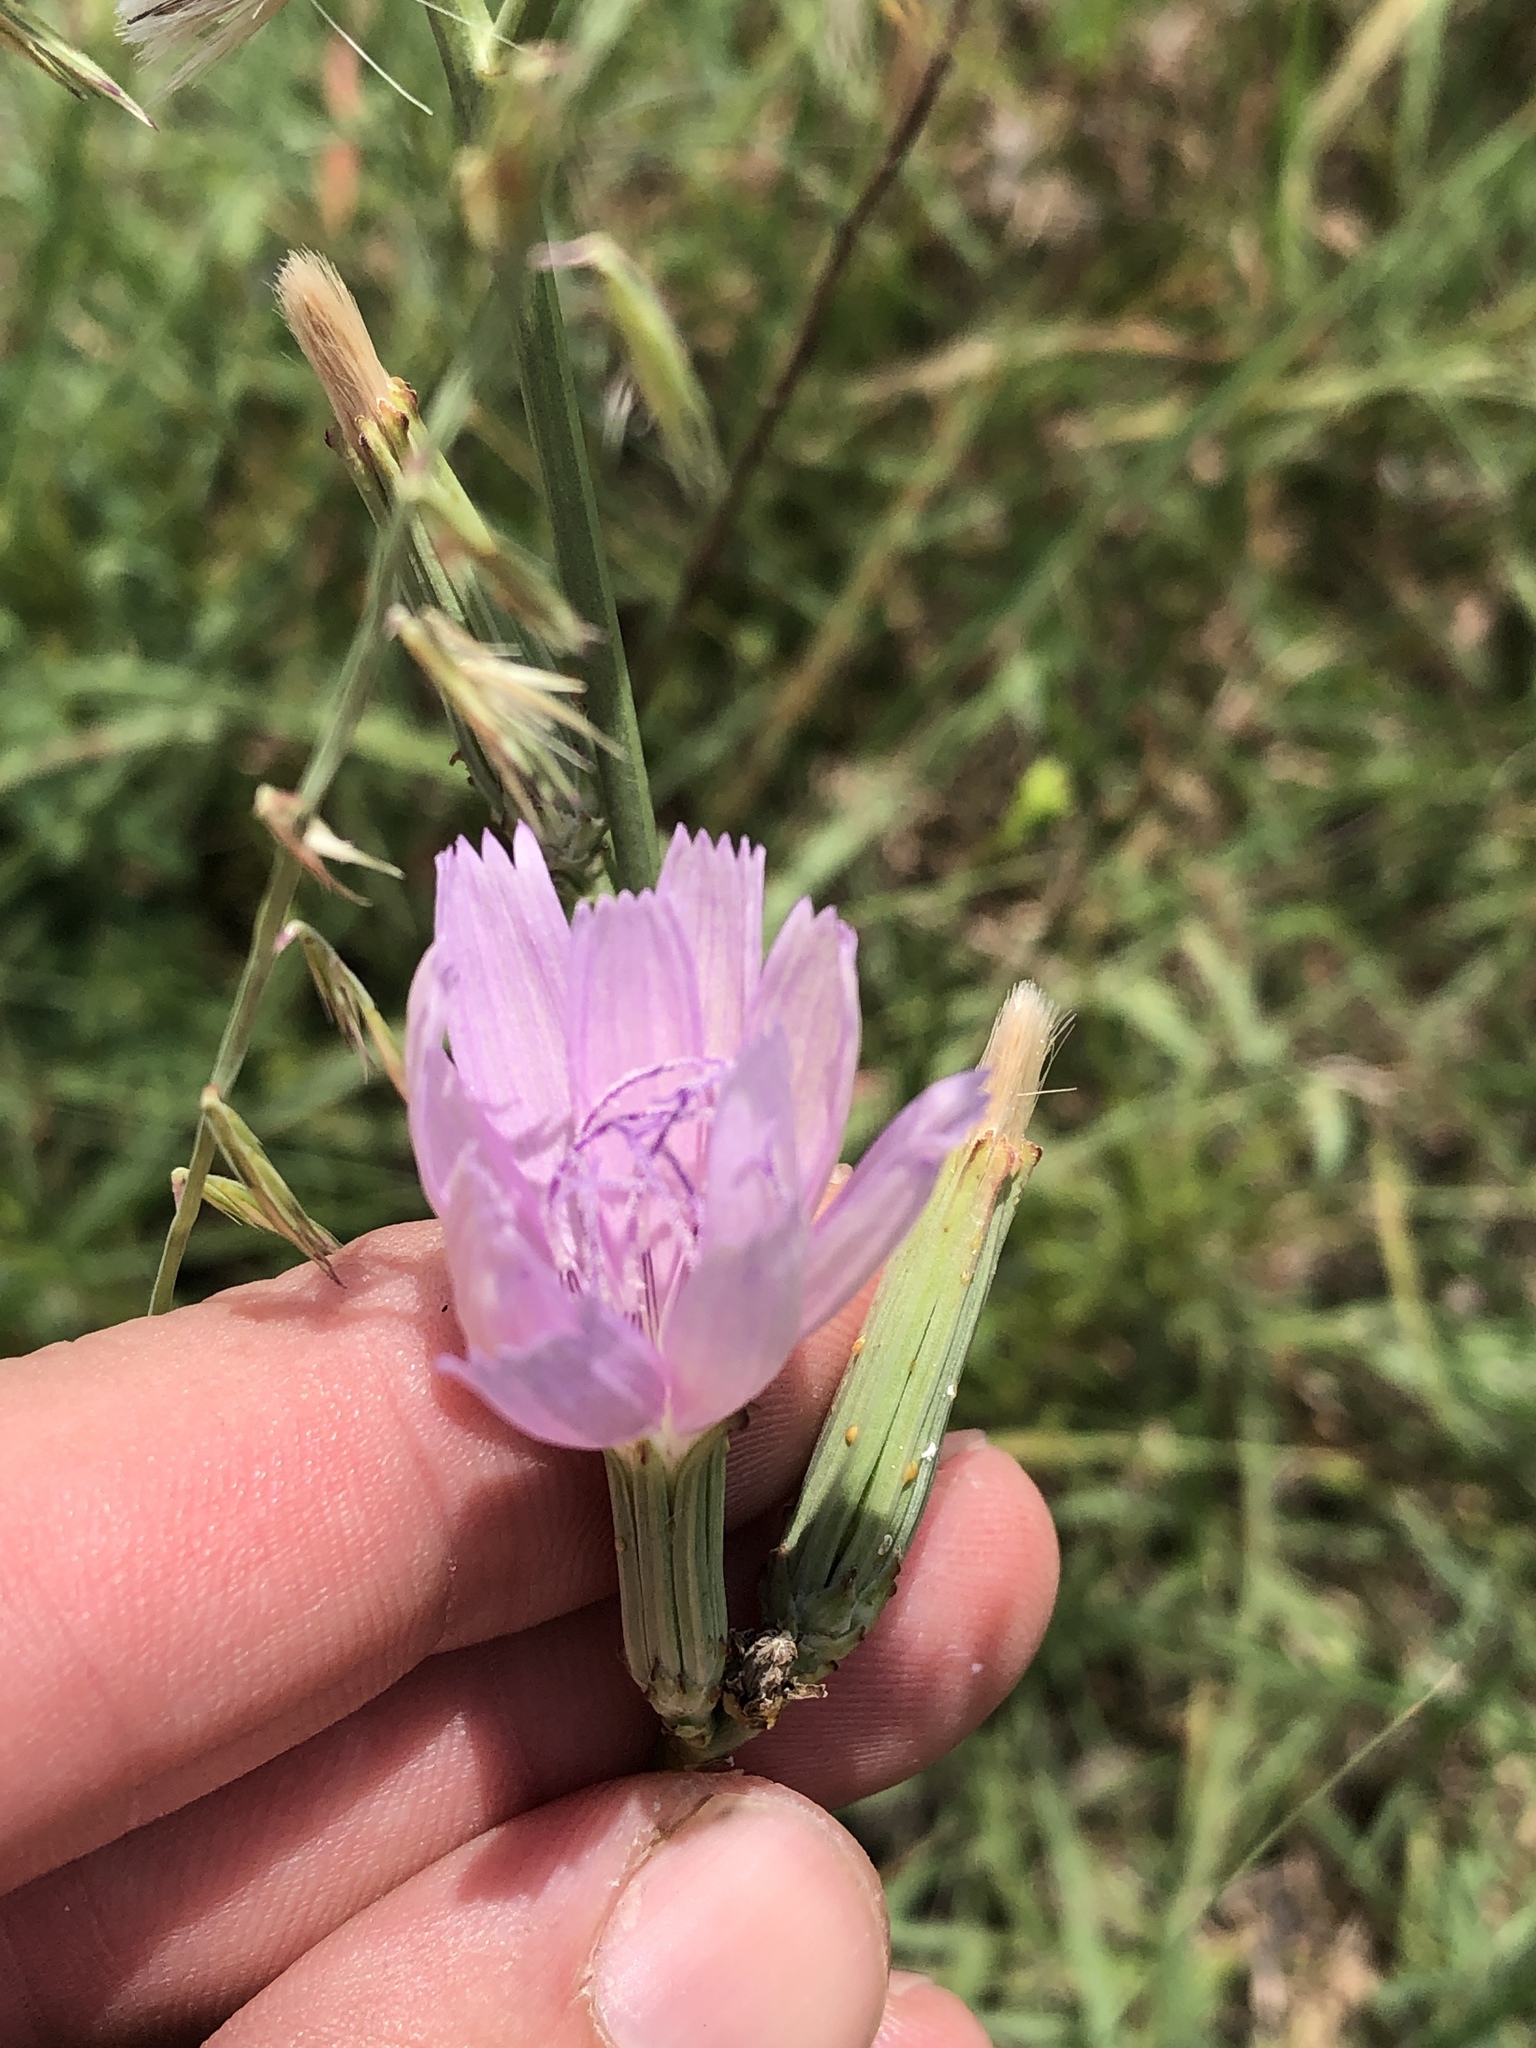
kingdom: Plantae
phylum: Tracheophyta
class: Magnoliopsida
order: Asterales
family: Asteraceae
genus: Lygodesmia
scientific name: Lygodesmia texana
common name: Texas skeleton-plant
